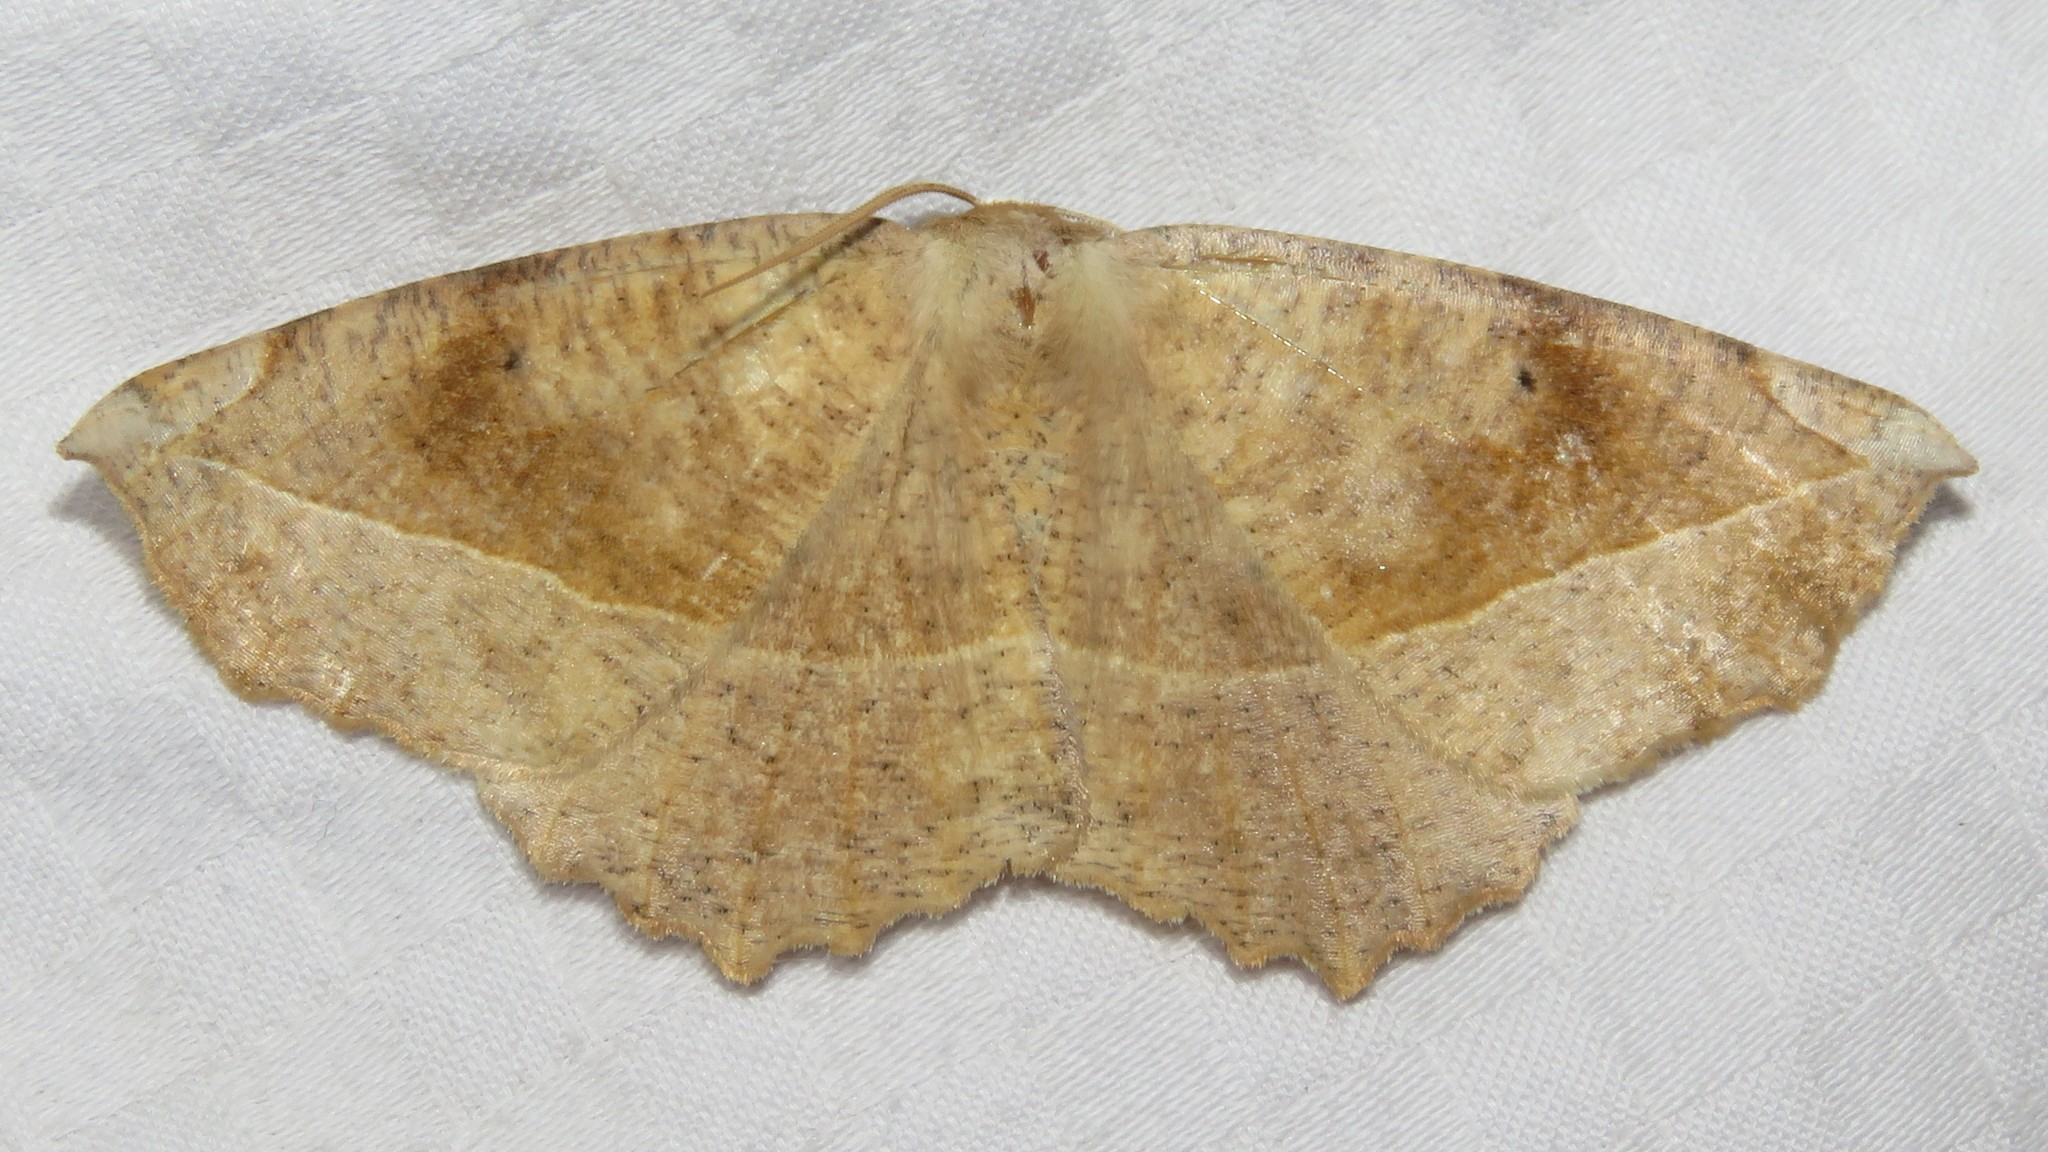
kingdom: Animalia
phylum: Arthropoda
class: Insecta
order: Lepidoptera
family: Geometridae
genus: Eutrapela
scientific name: Eutrapela clemataria
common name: Curved-toothed geometer
